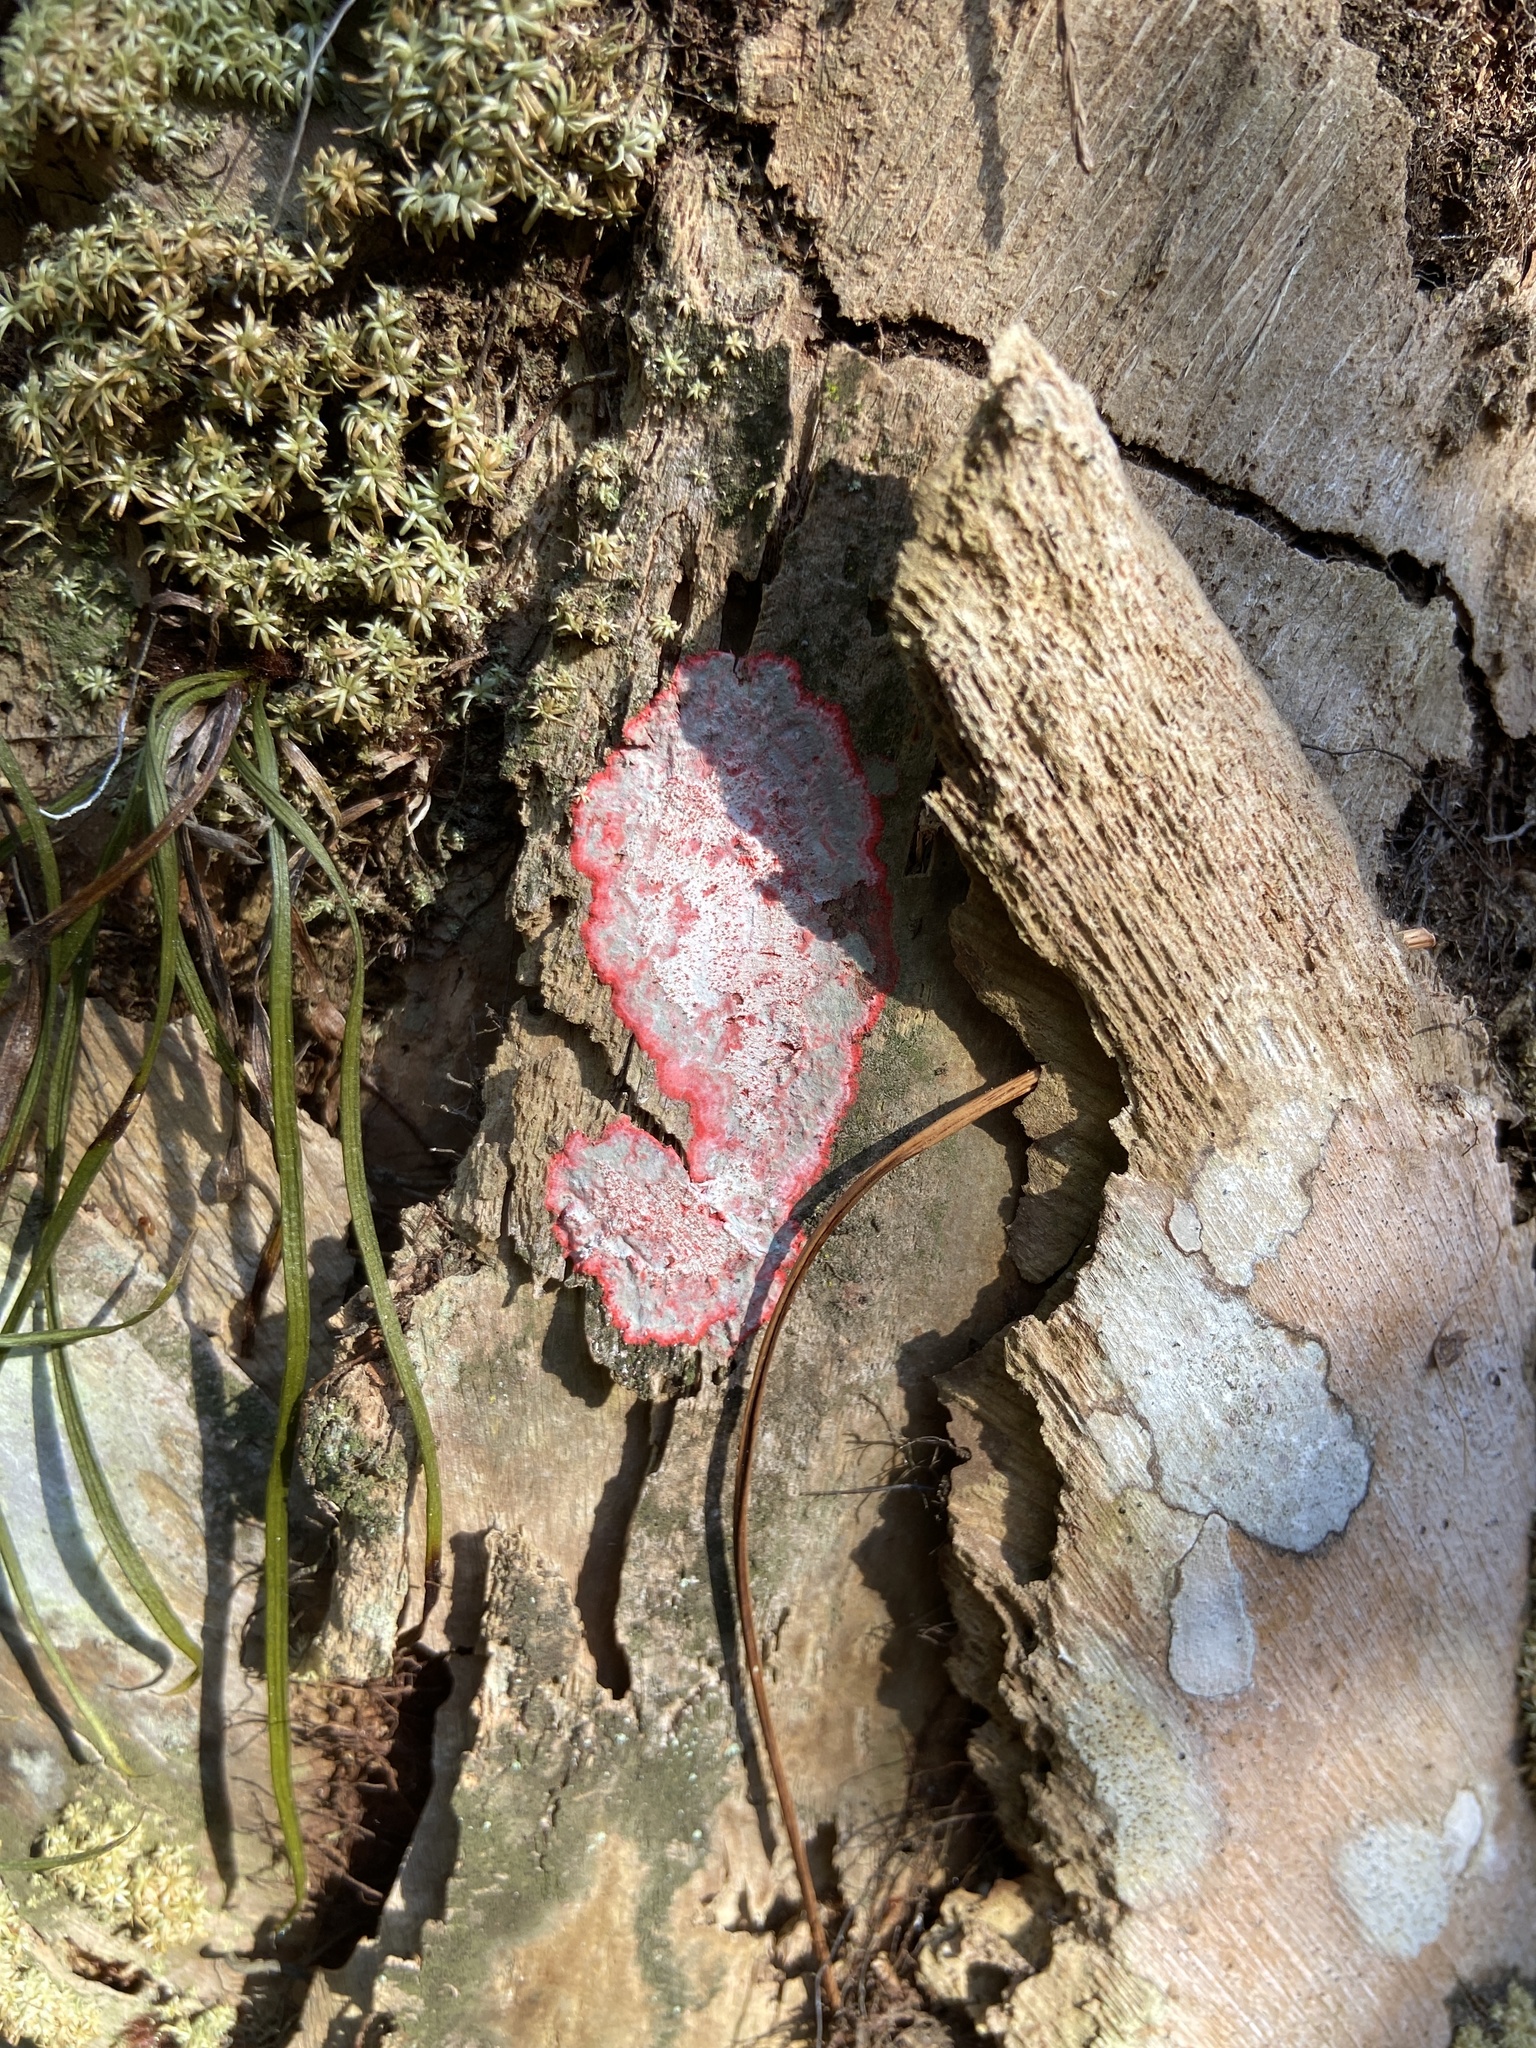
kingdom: Fungi
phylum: Ascomycota
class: Arthoniomycetes
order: Arthoniales
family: Arthoniaceae
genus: Herpothallon
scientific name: Herpothallon rubrocinctum
